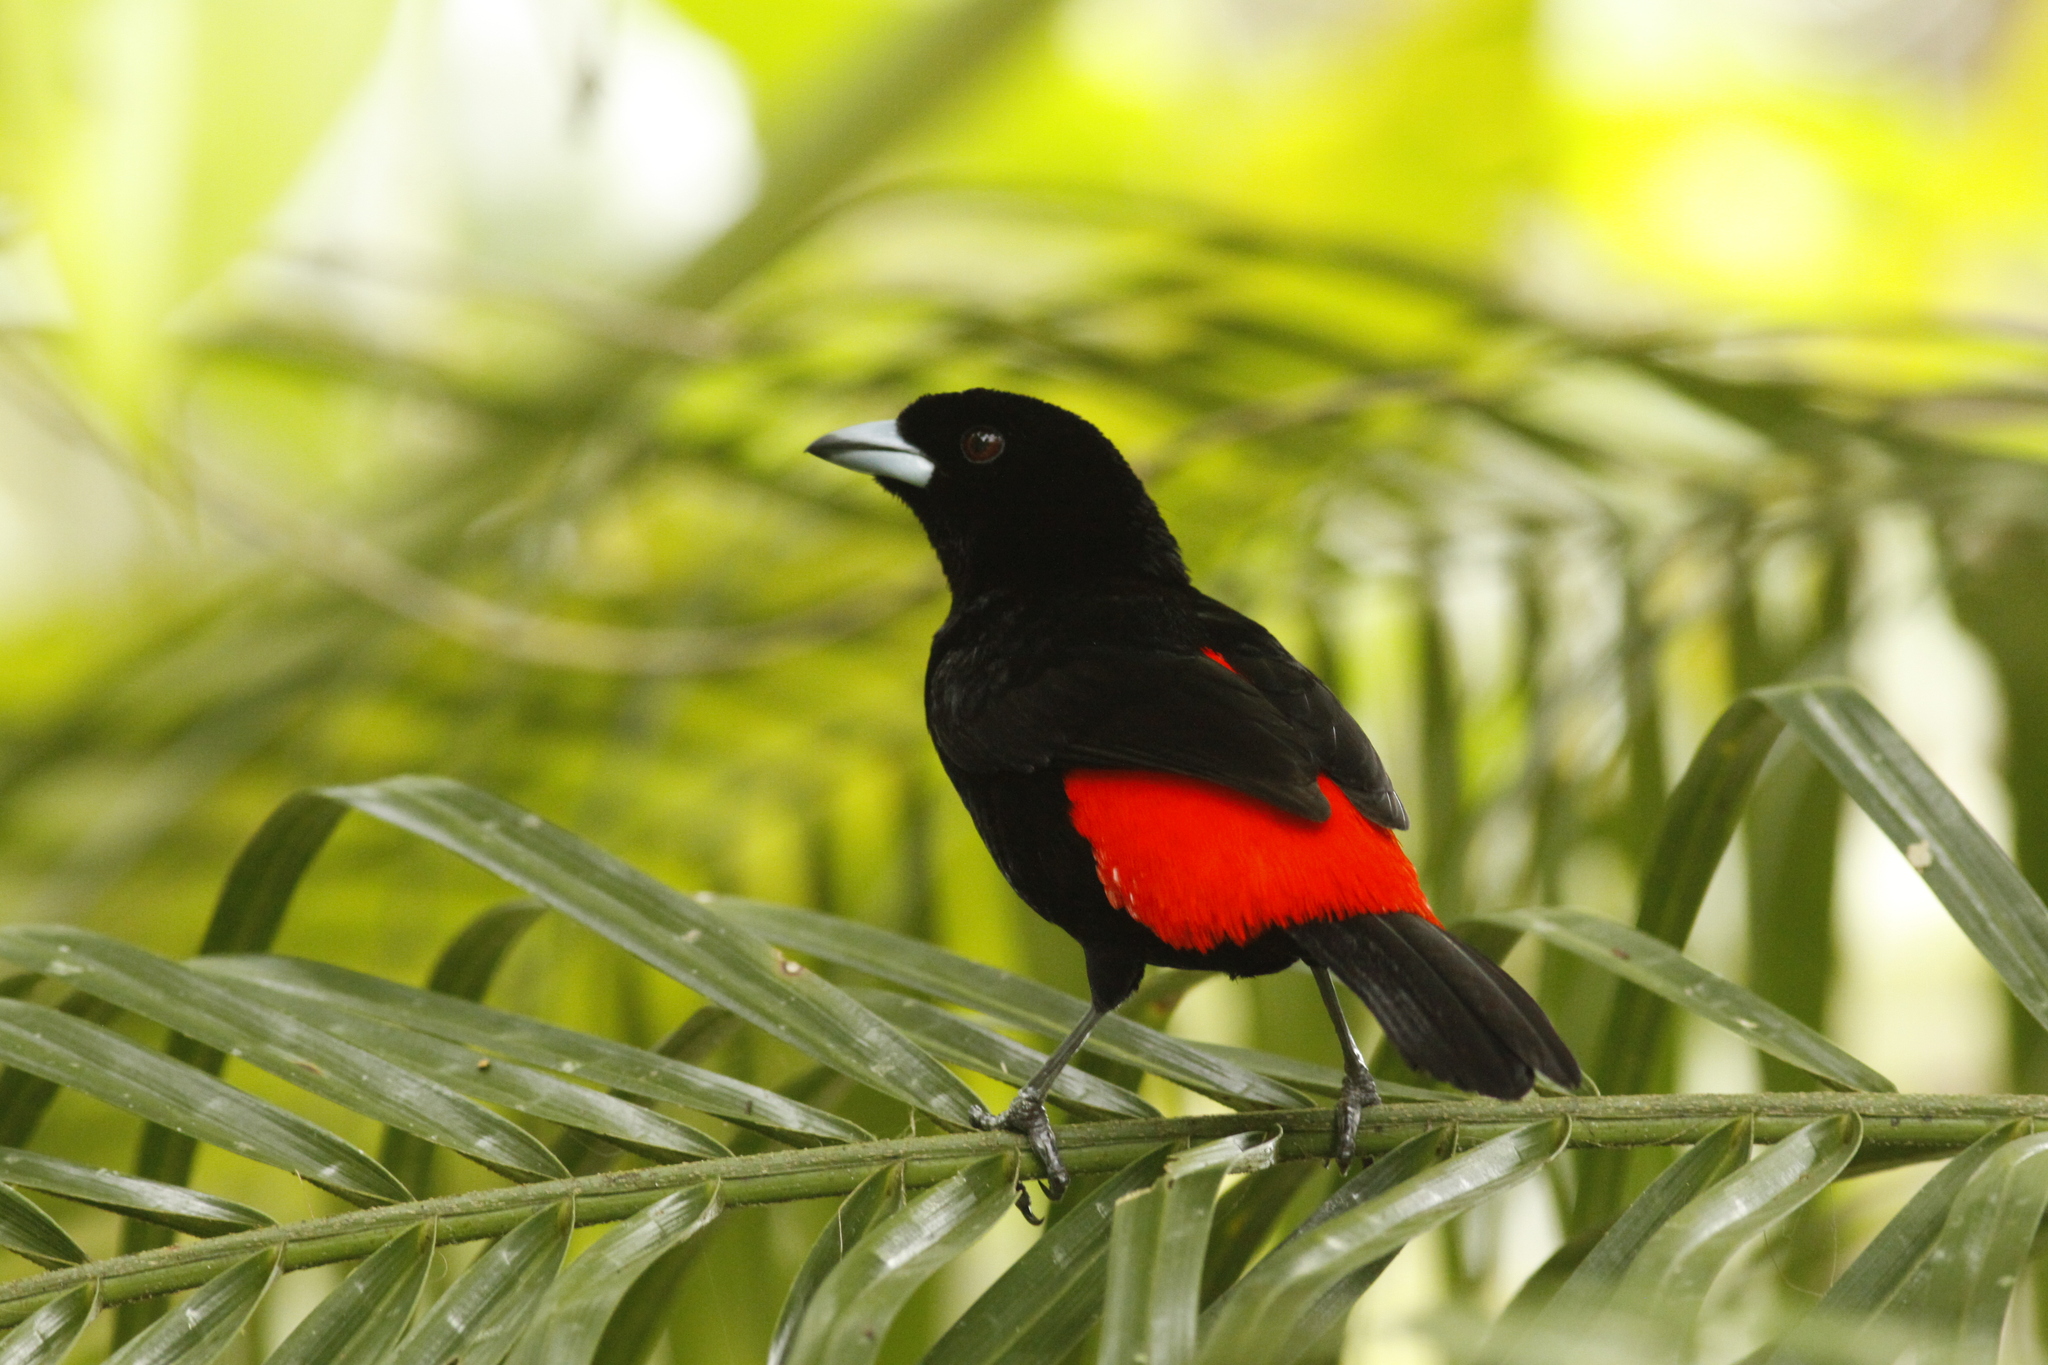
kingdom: Animalia
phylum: Chordata
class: Aves
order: Passeriformes
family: Thraupidae
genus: Ramphocelus
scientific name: Ramphocelus passerinii
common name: Passerini's tanager
